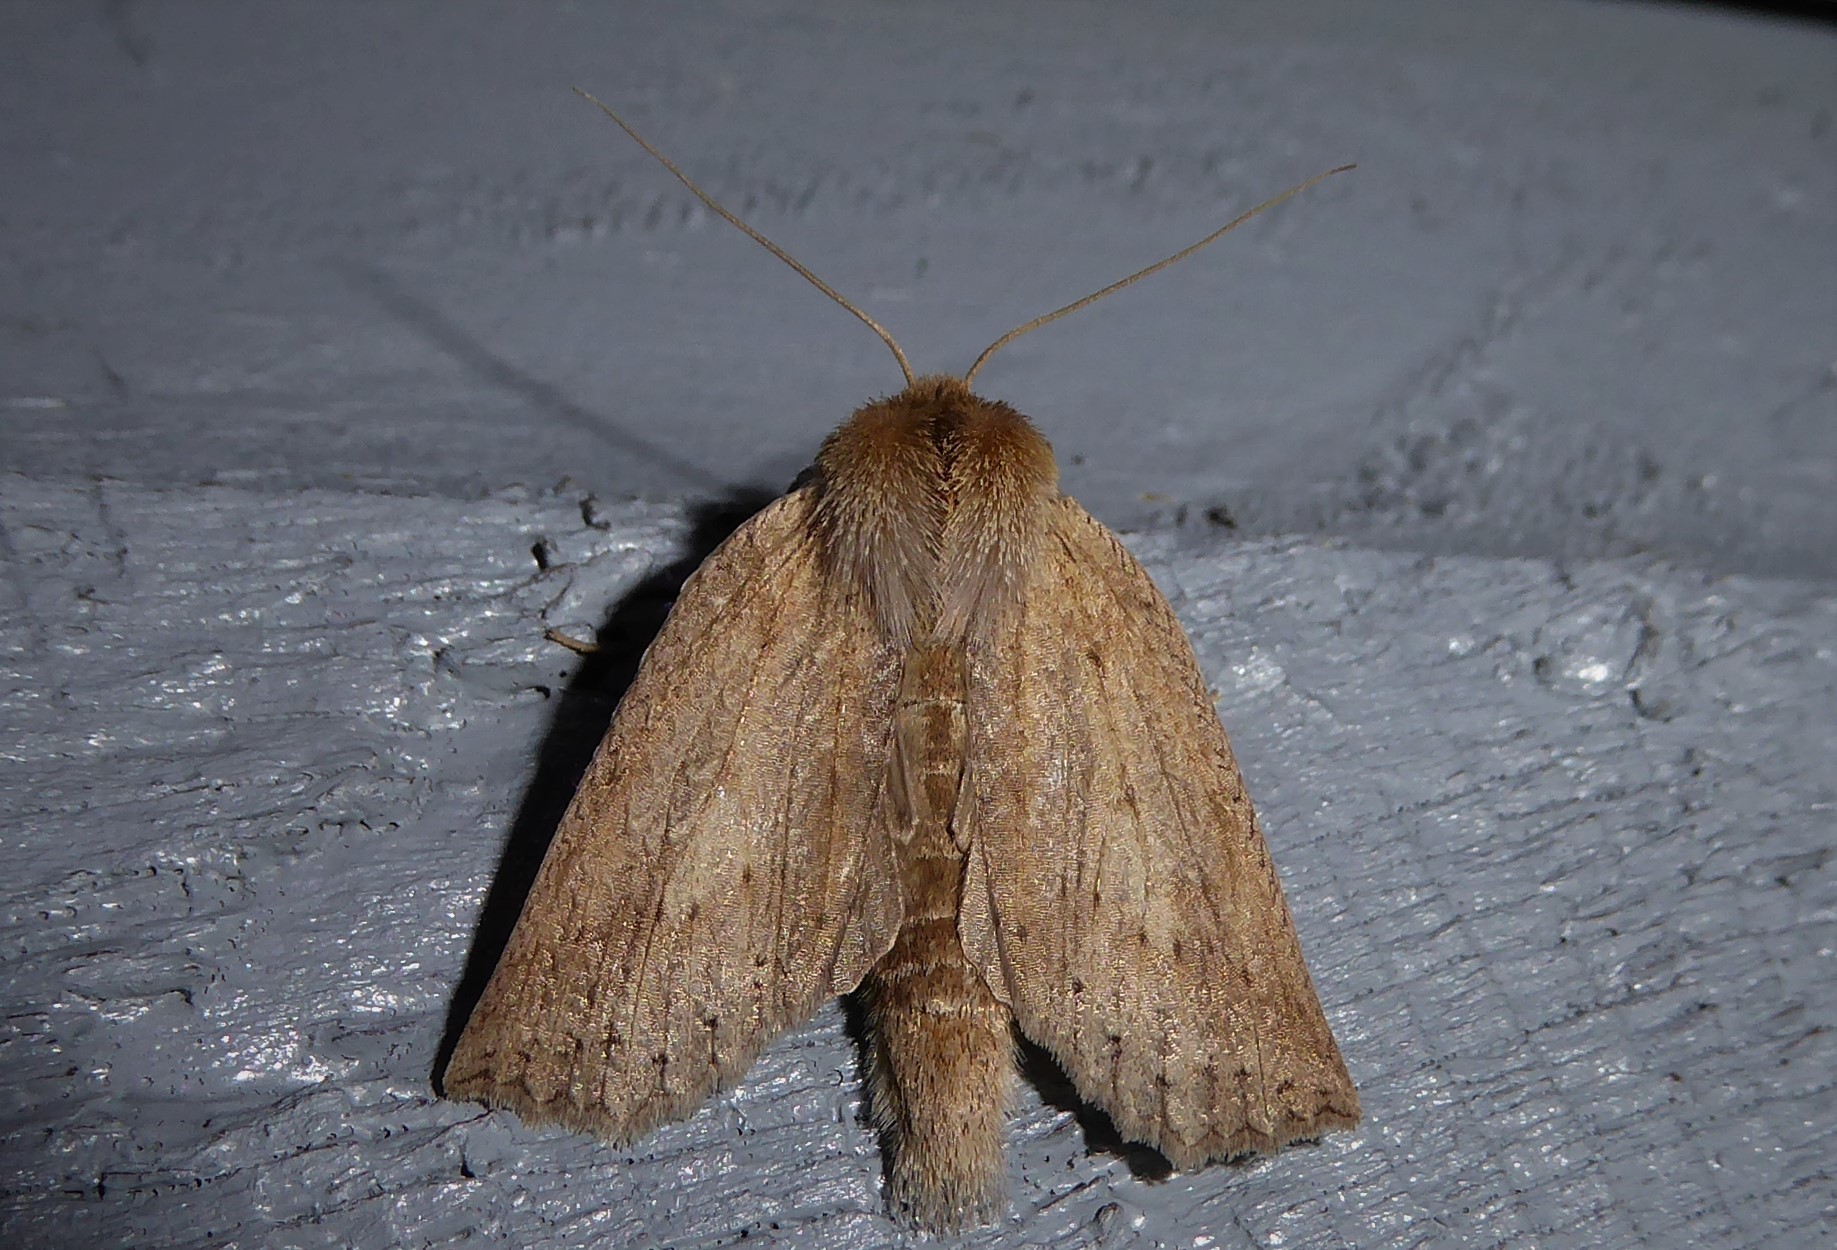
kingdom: Animalia
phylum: Arthropoda
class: Insecta
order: Lepidoptera
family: Geometridae
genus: Declana
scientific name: Declana leptomera
